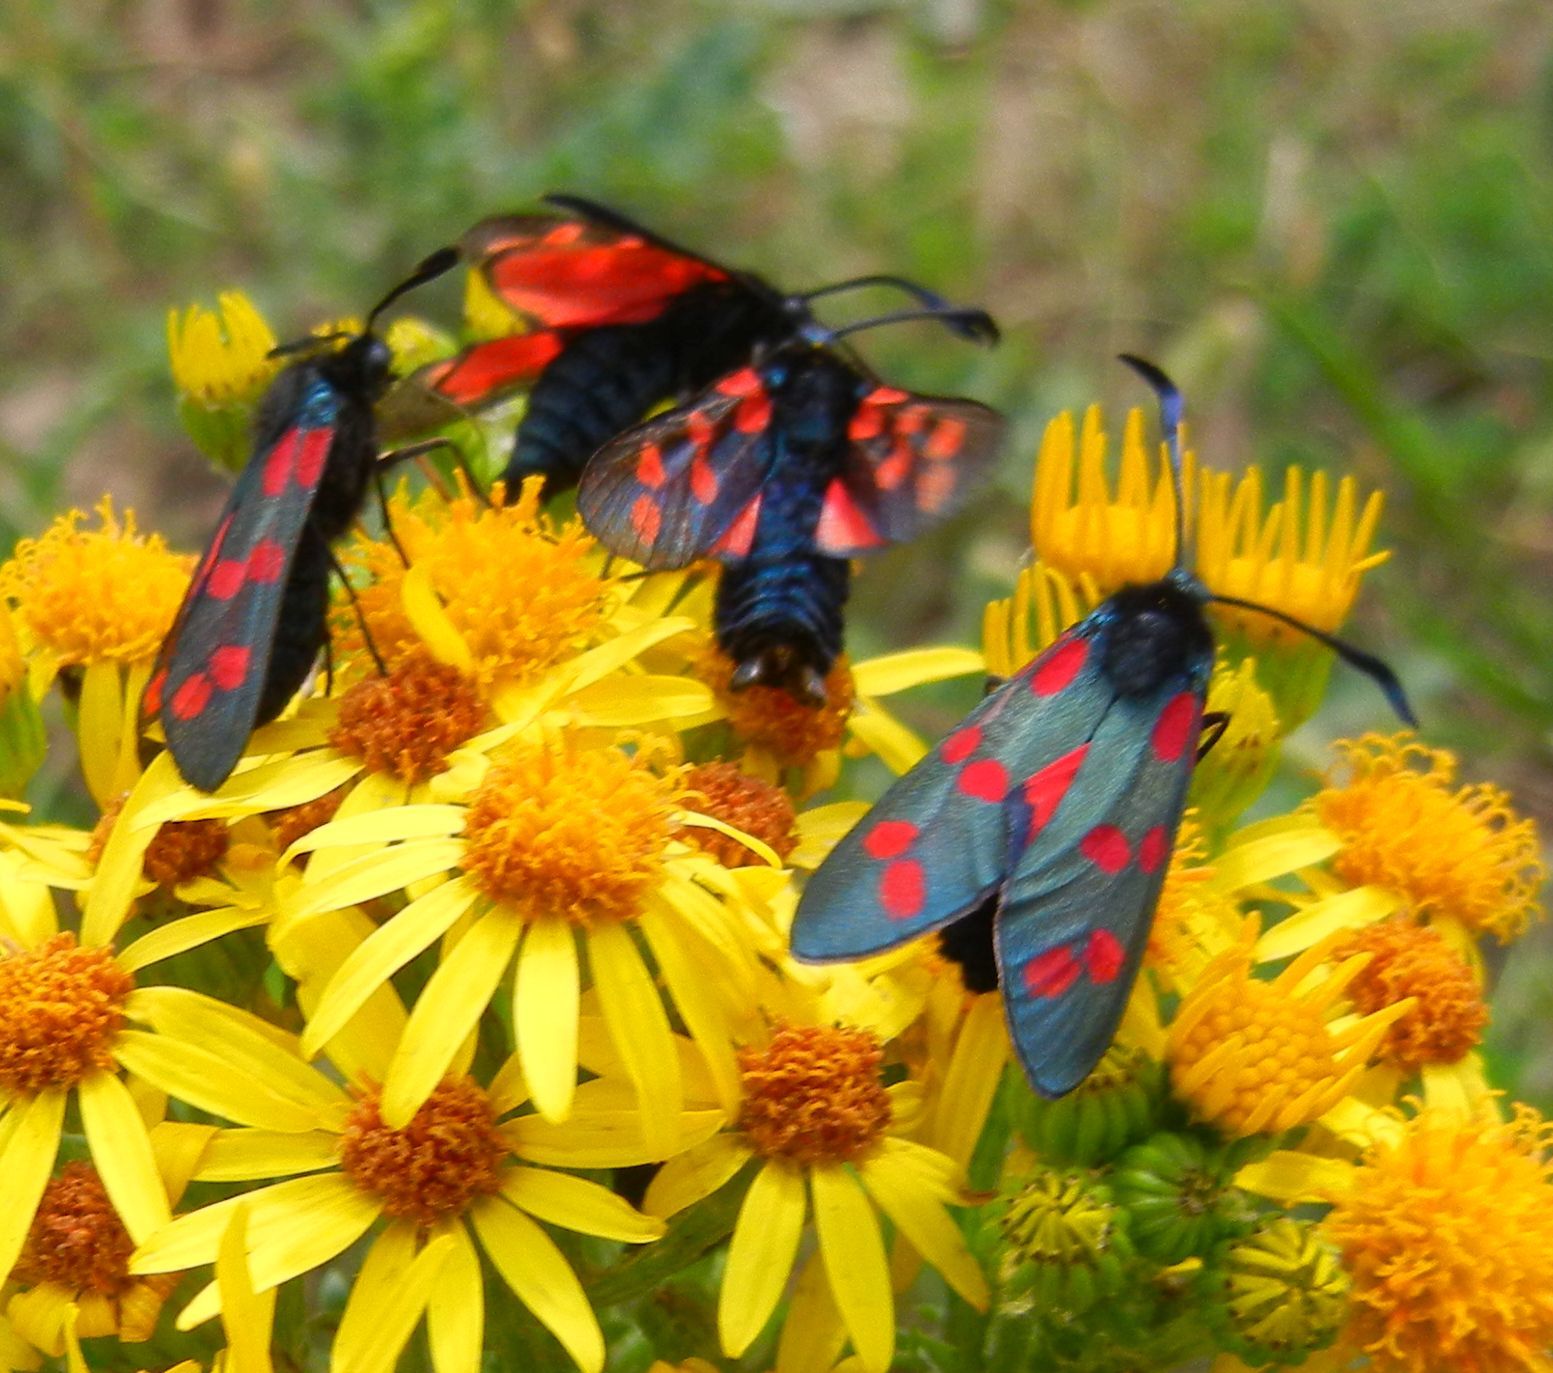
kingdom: Animalia
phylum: Arthropoda
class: Insecta
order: Lepidoptera
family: Zygaenidae
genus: Zygaena
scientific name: Zygaena filipendulae
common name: Six-spot burnet
